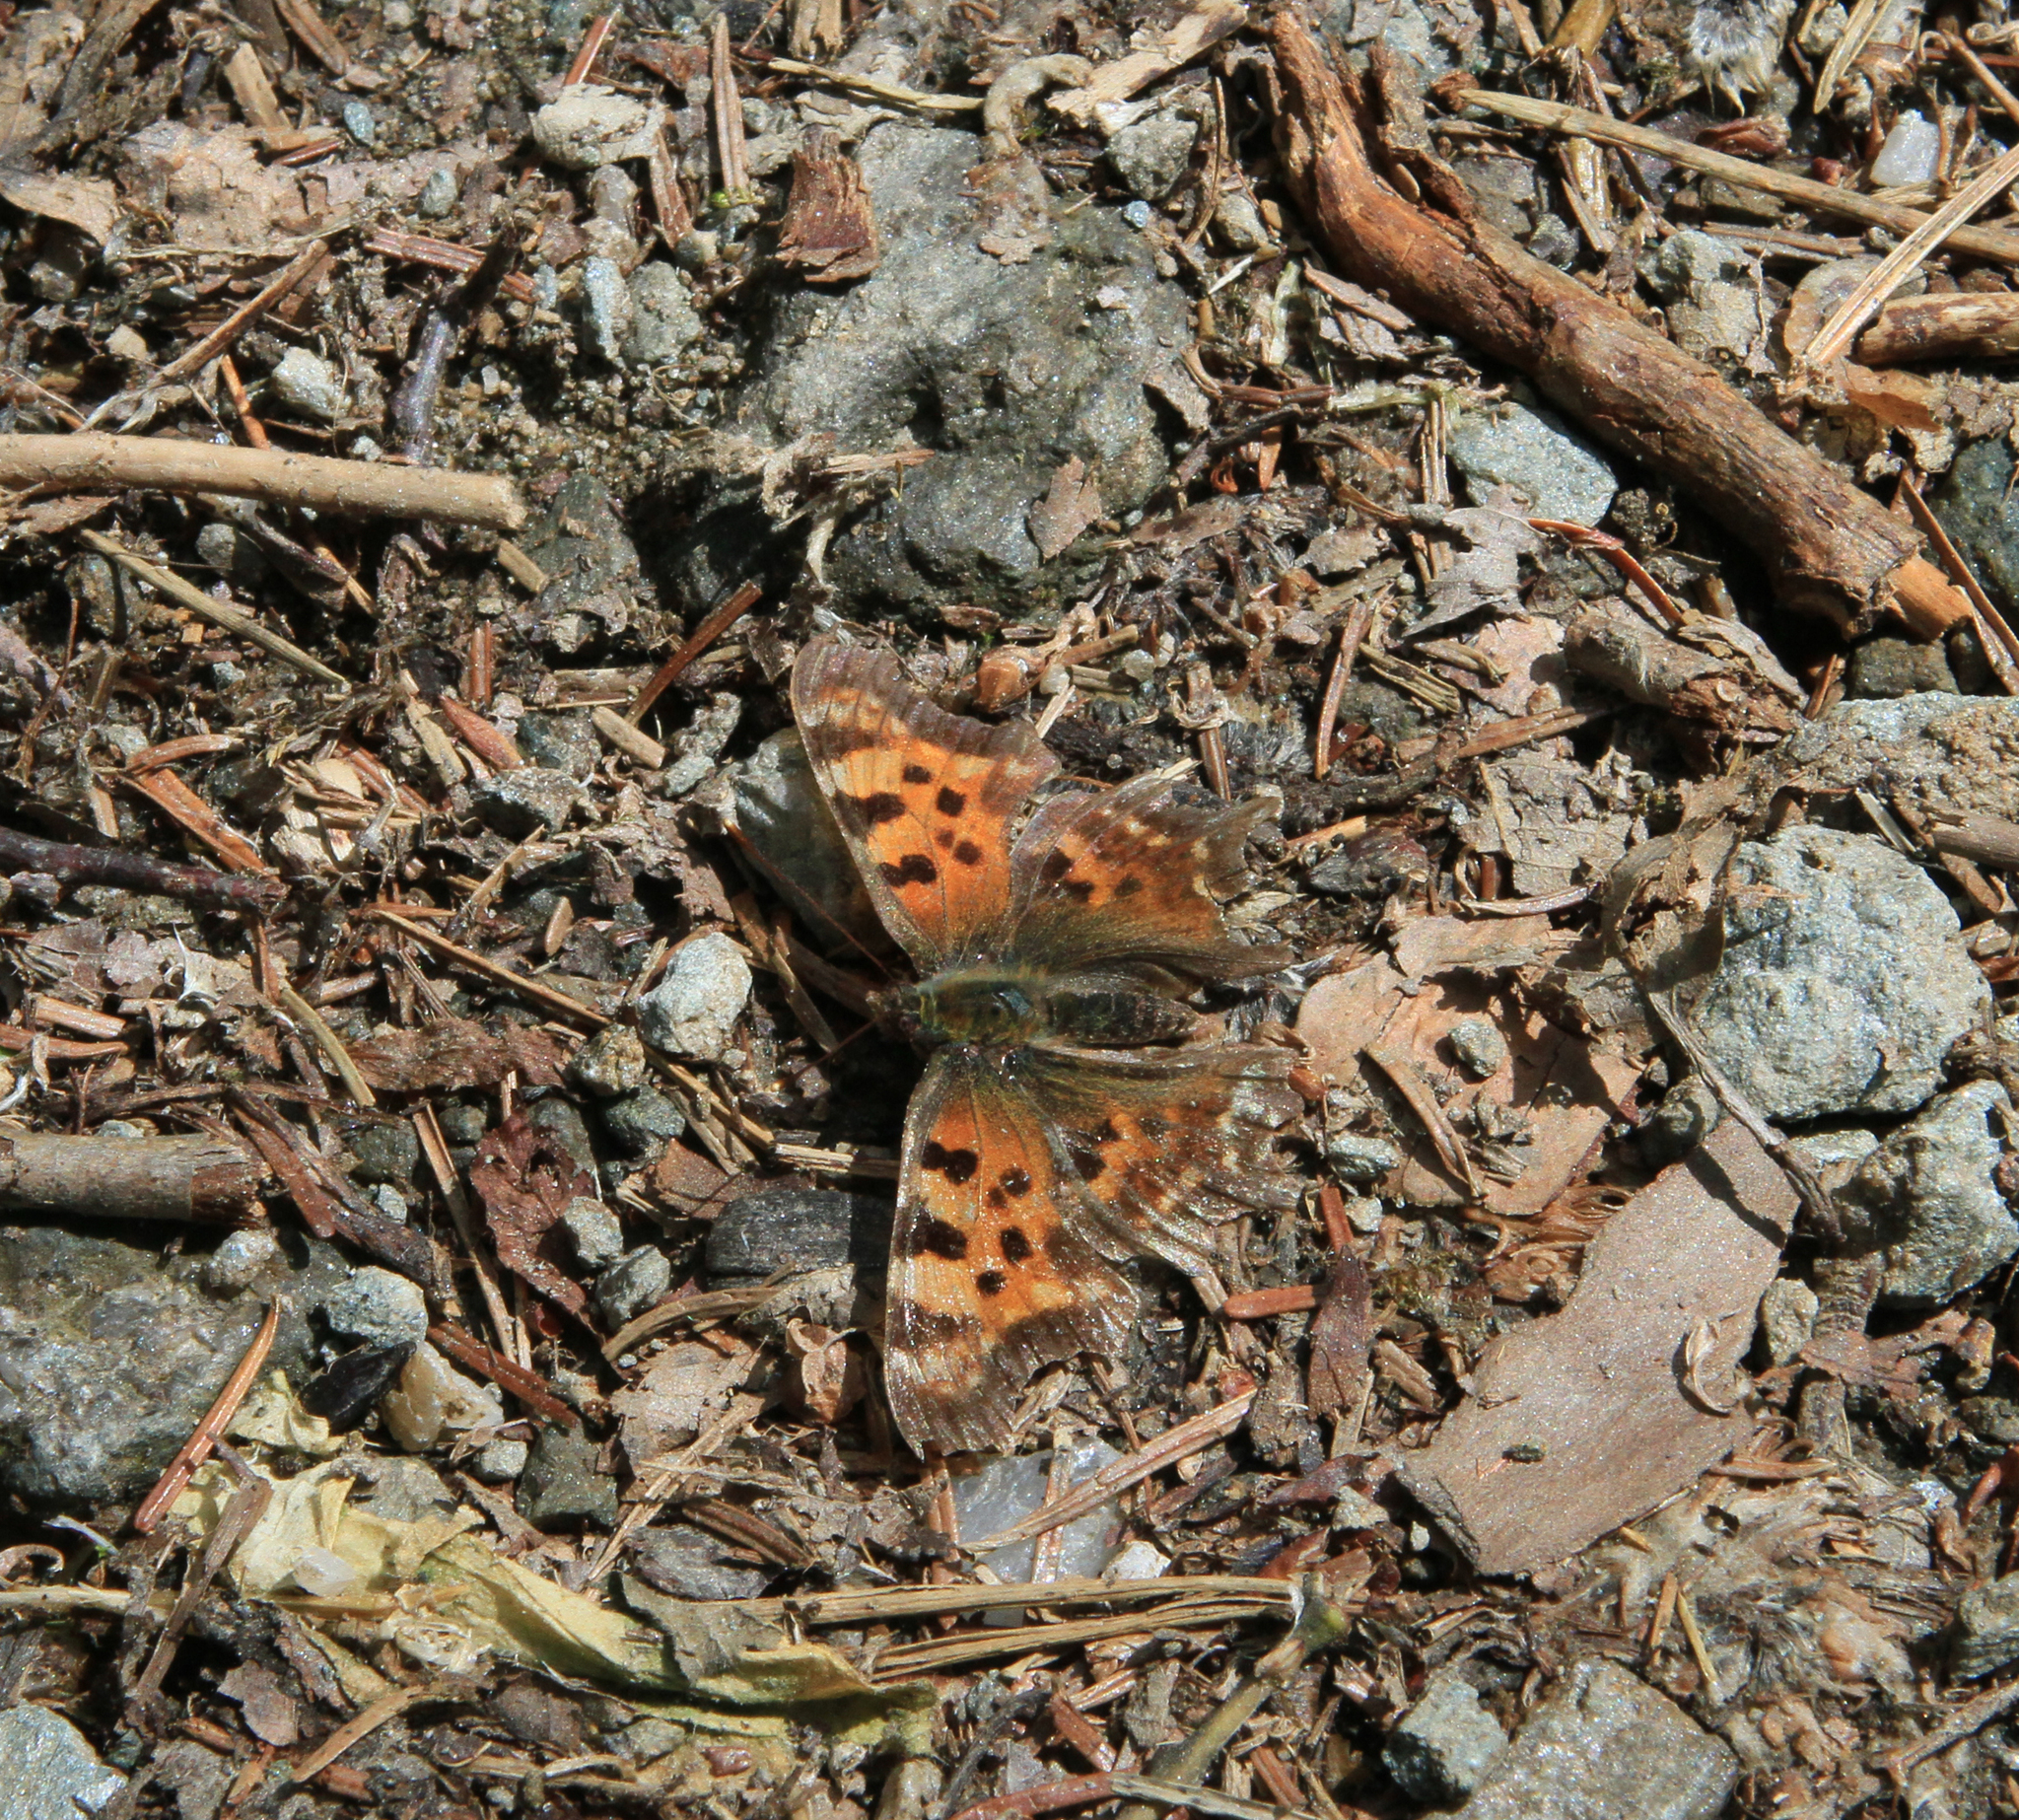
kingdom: Animalia
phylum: Arthropoda
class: Insecta
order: Lepidoptera
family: Nymphalidae
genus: Polygonia
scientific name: Polygonia c-album
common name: Comma
